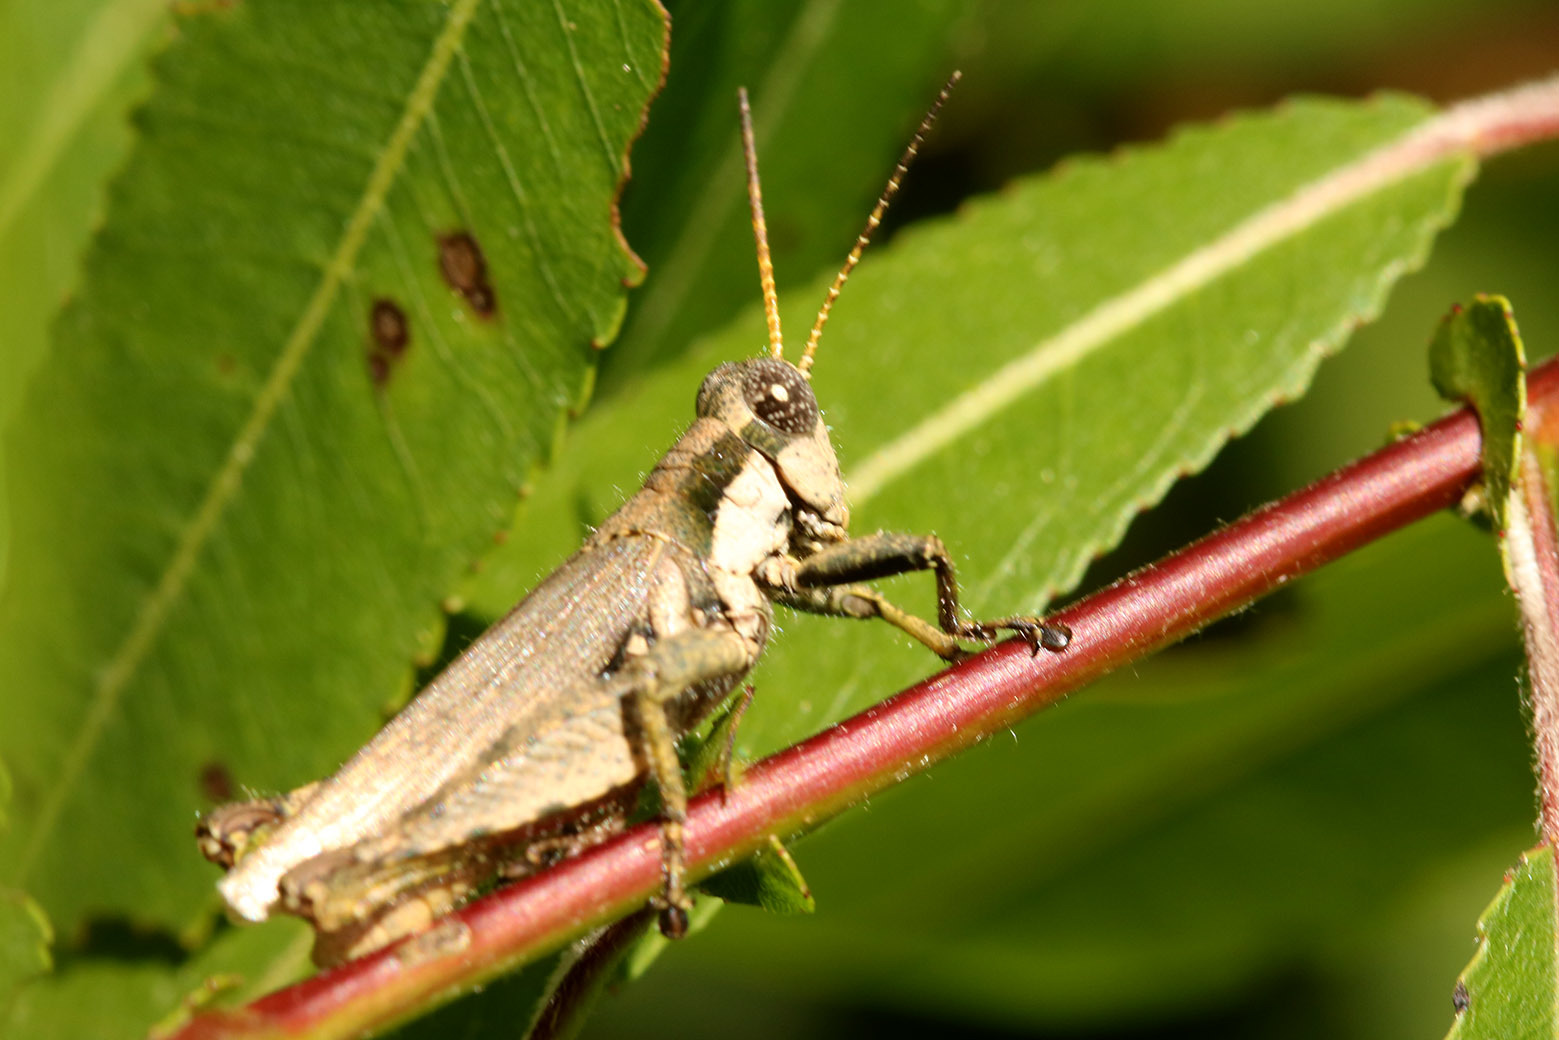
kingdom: Animalia
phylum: Arthropoda
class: Insecta
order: Orthoptera
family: Acrididae
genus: Ronderosia
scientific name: Ronderosia bergii
